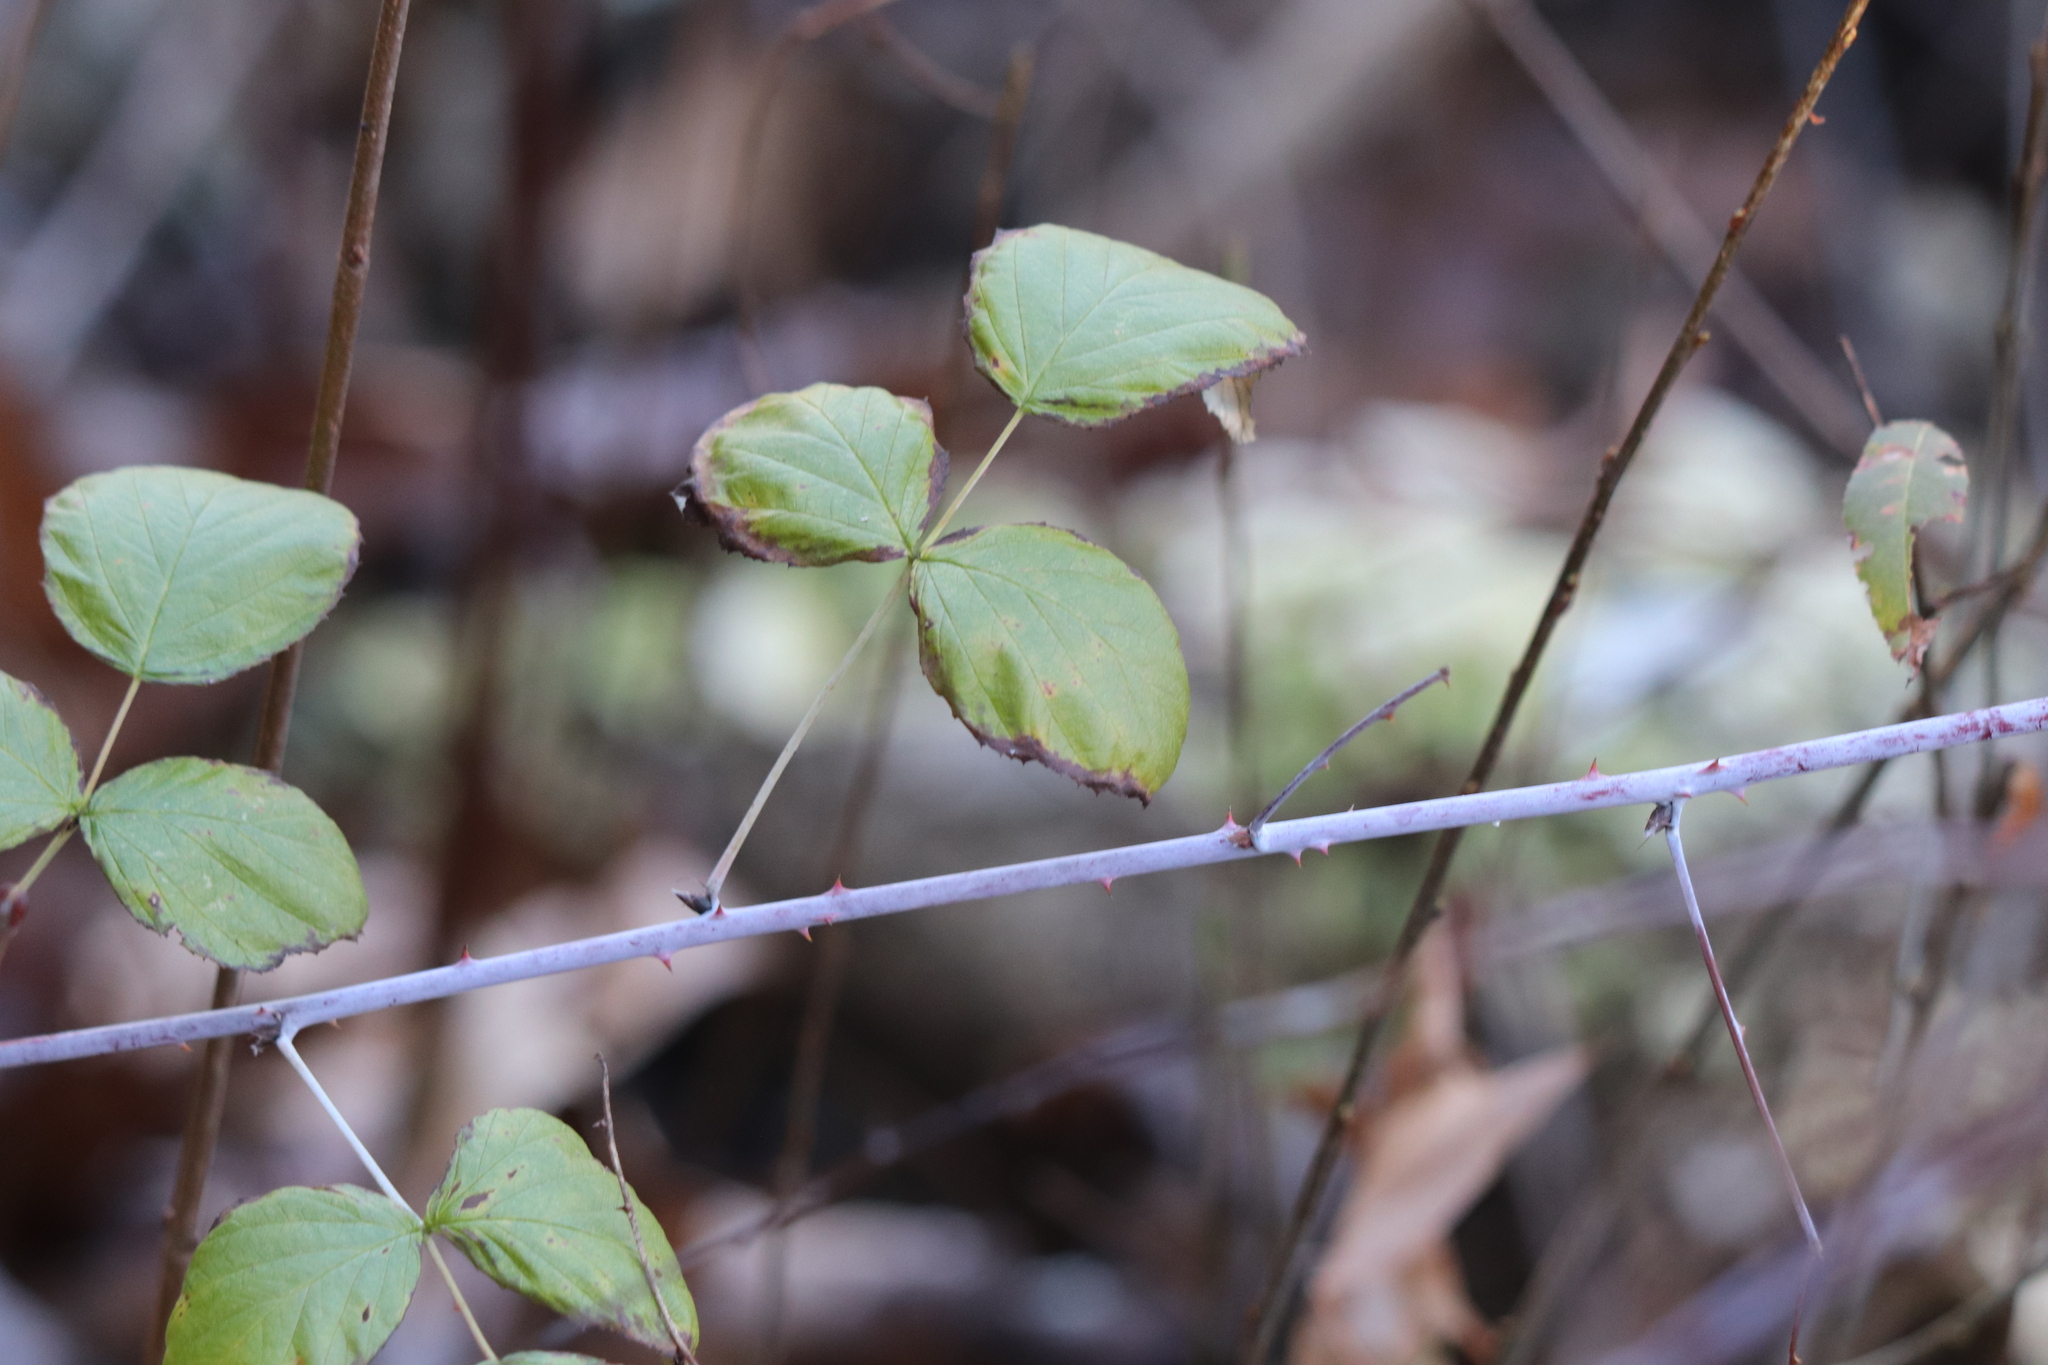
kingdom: Plantae
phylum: Tracheophyta
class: Magnoliopsida
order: Rosales
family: Rosaceae
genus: Rubus
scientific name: Rubus occidentalis
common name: Black raspberry
